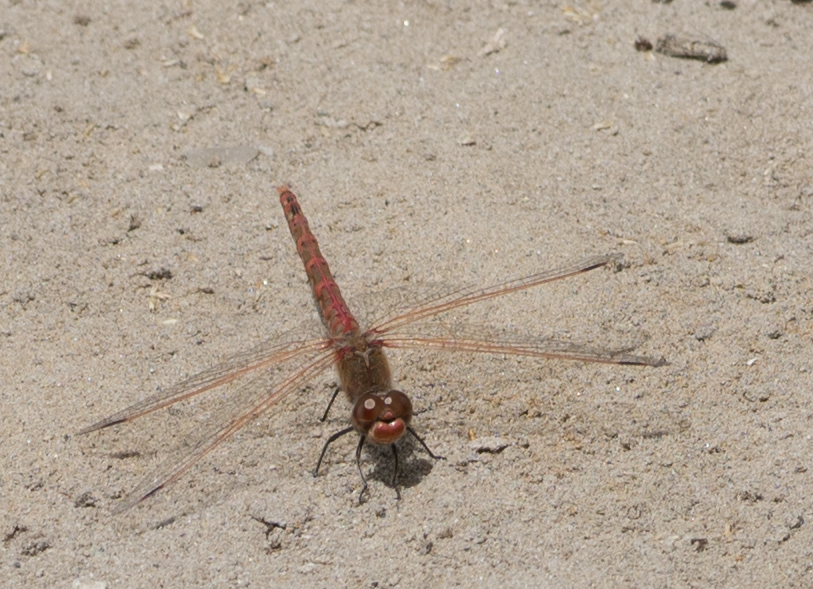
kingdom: Animalia
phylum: Arthropoda
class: Insecta
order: Odonata
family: Libellulidae
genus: Sympetrum
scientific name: Sympetrum corruptum
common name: Variegated meadowhawk
